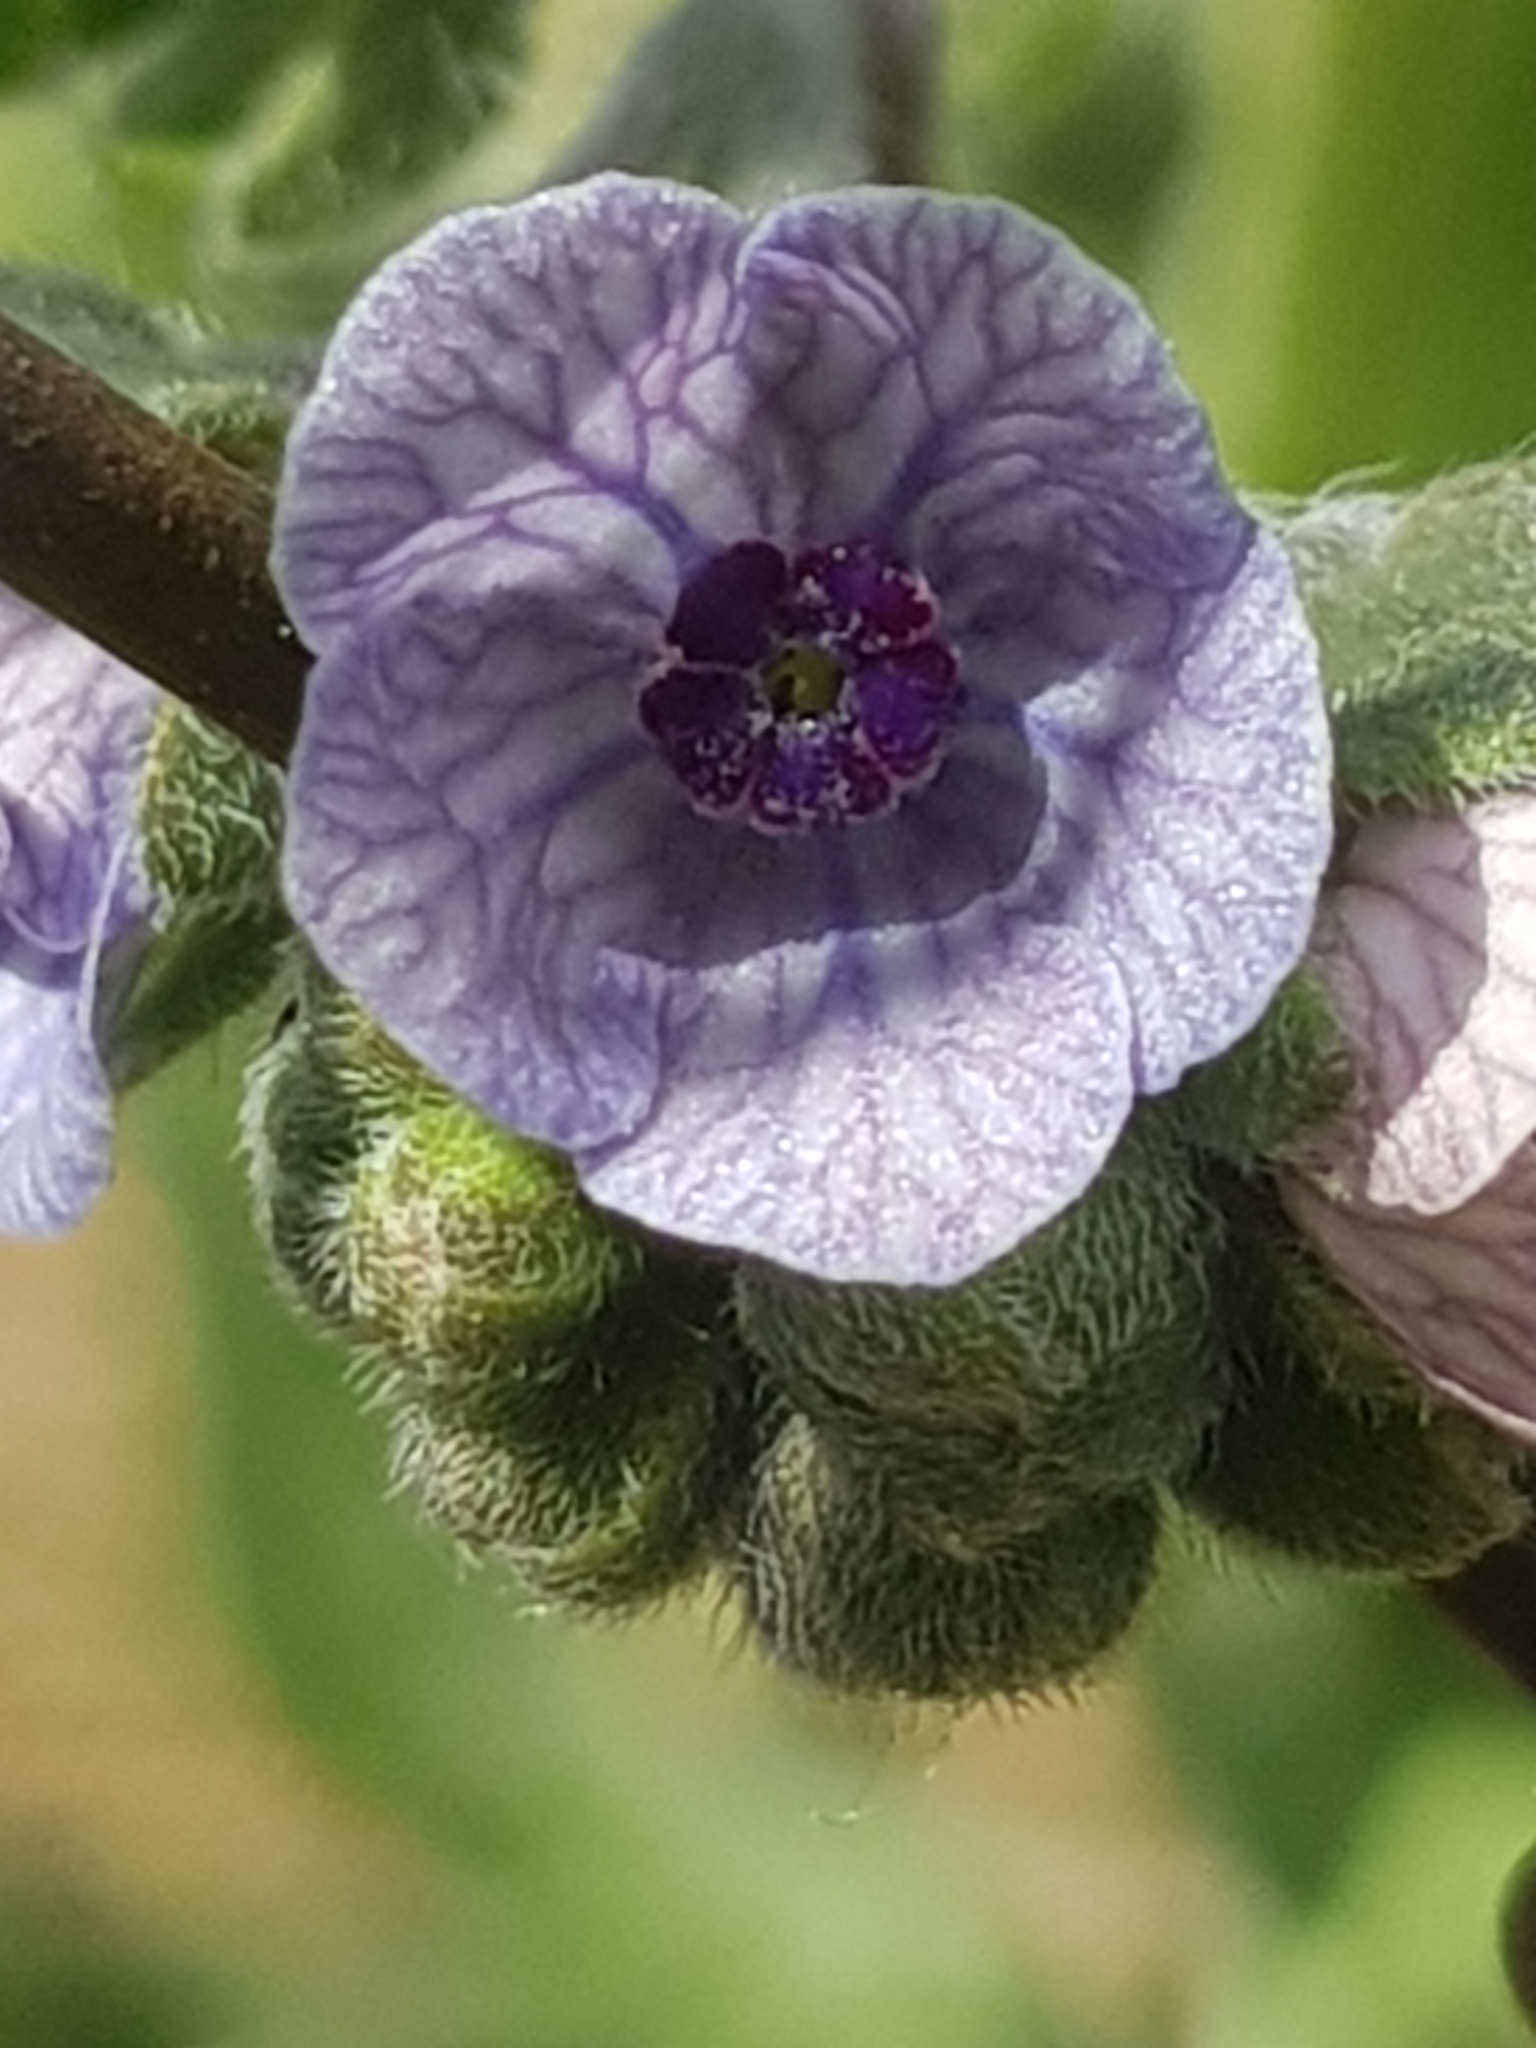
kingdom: Plantae
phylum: Tracheophyta
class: Magnoliopsida
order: Boraginales
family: Boraginaceae
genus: Cynoglossum
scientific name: Cynoglossum creticum
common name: Blue hound's tongue
